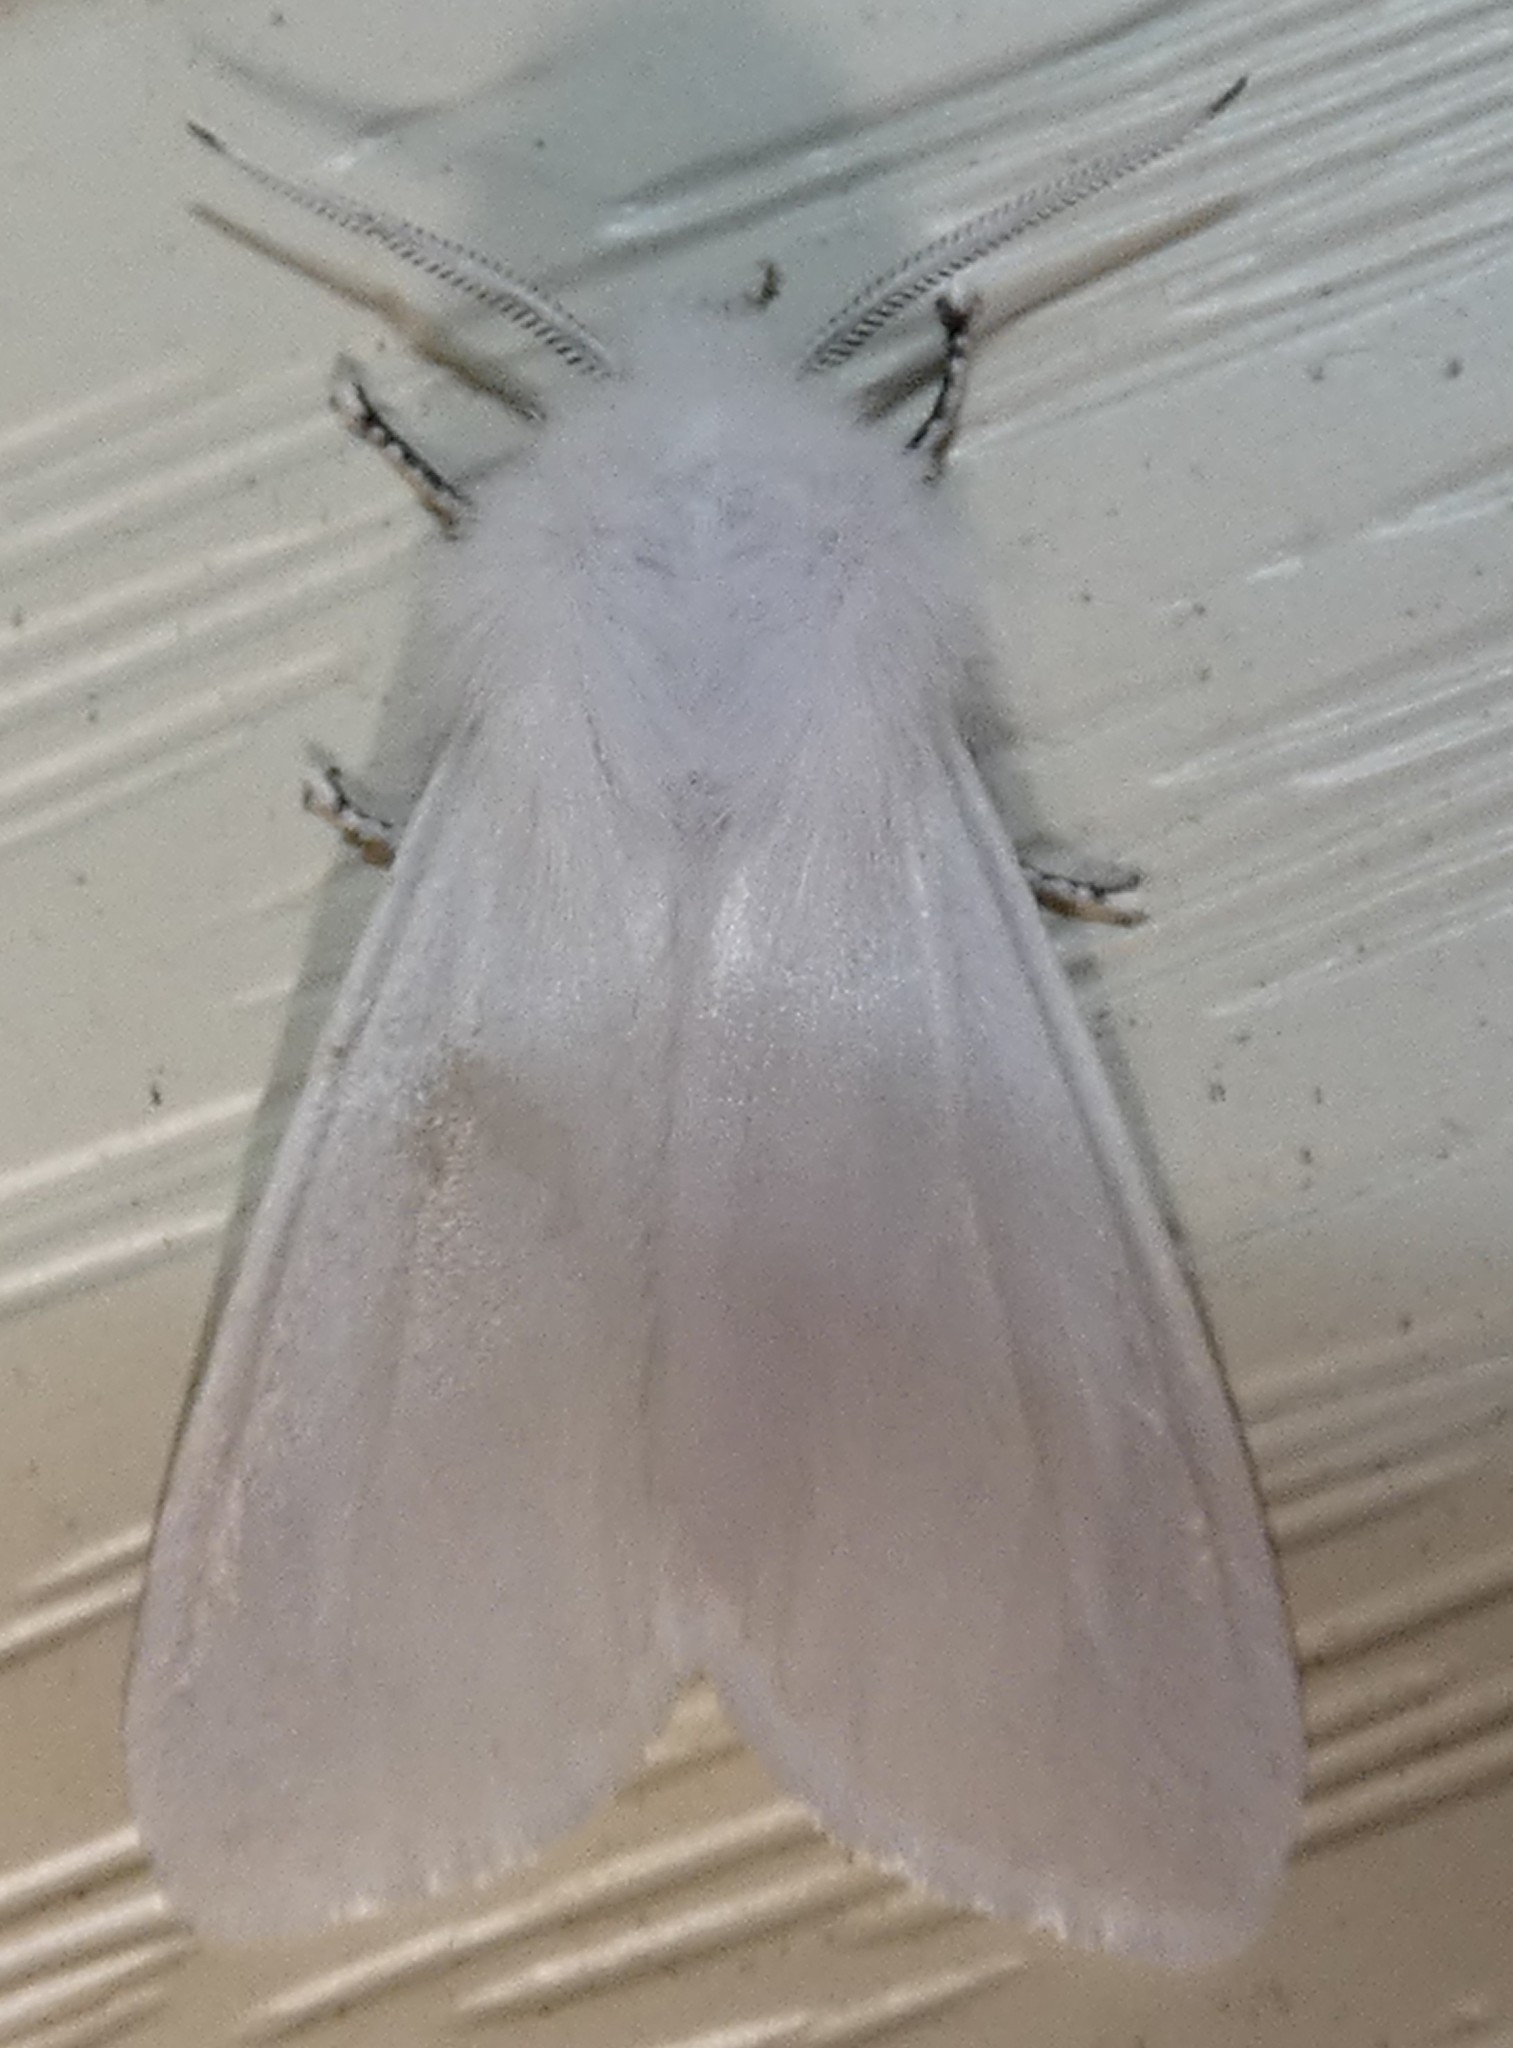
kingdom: Animalia
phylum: Arthropoda
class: Insecta
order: Lepidoptera
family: Erebidae
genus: Hyphantria
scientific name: Hyphantria cunea
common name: American white moth
